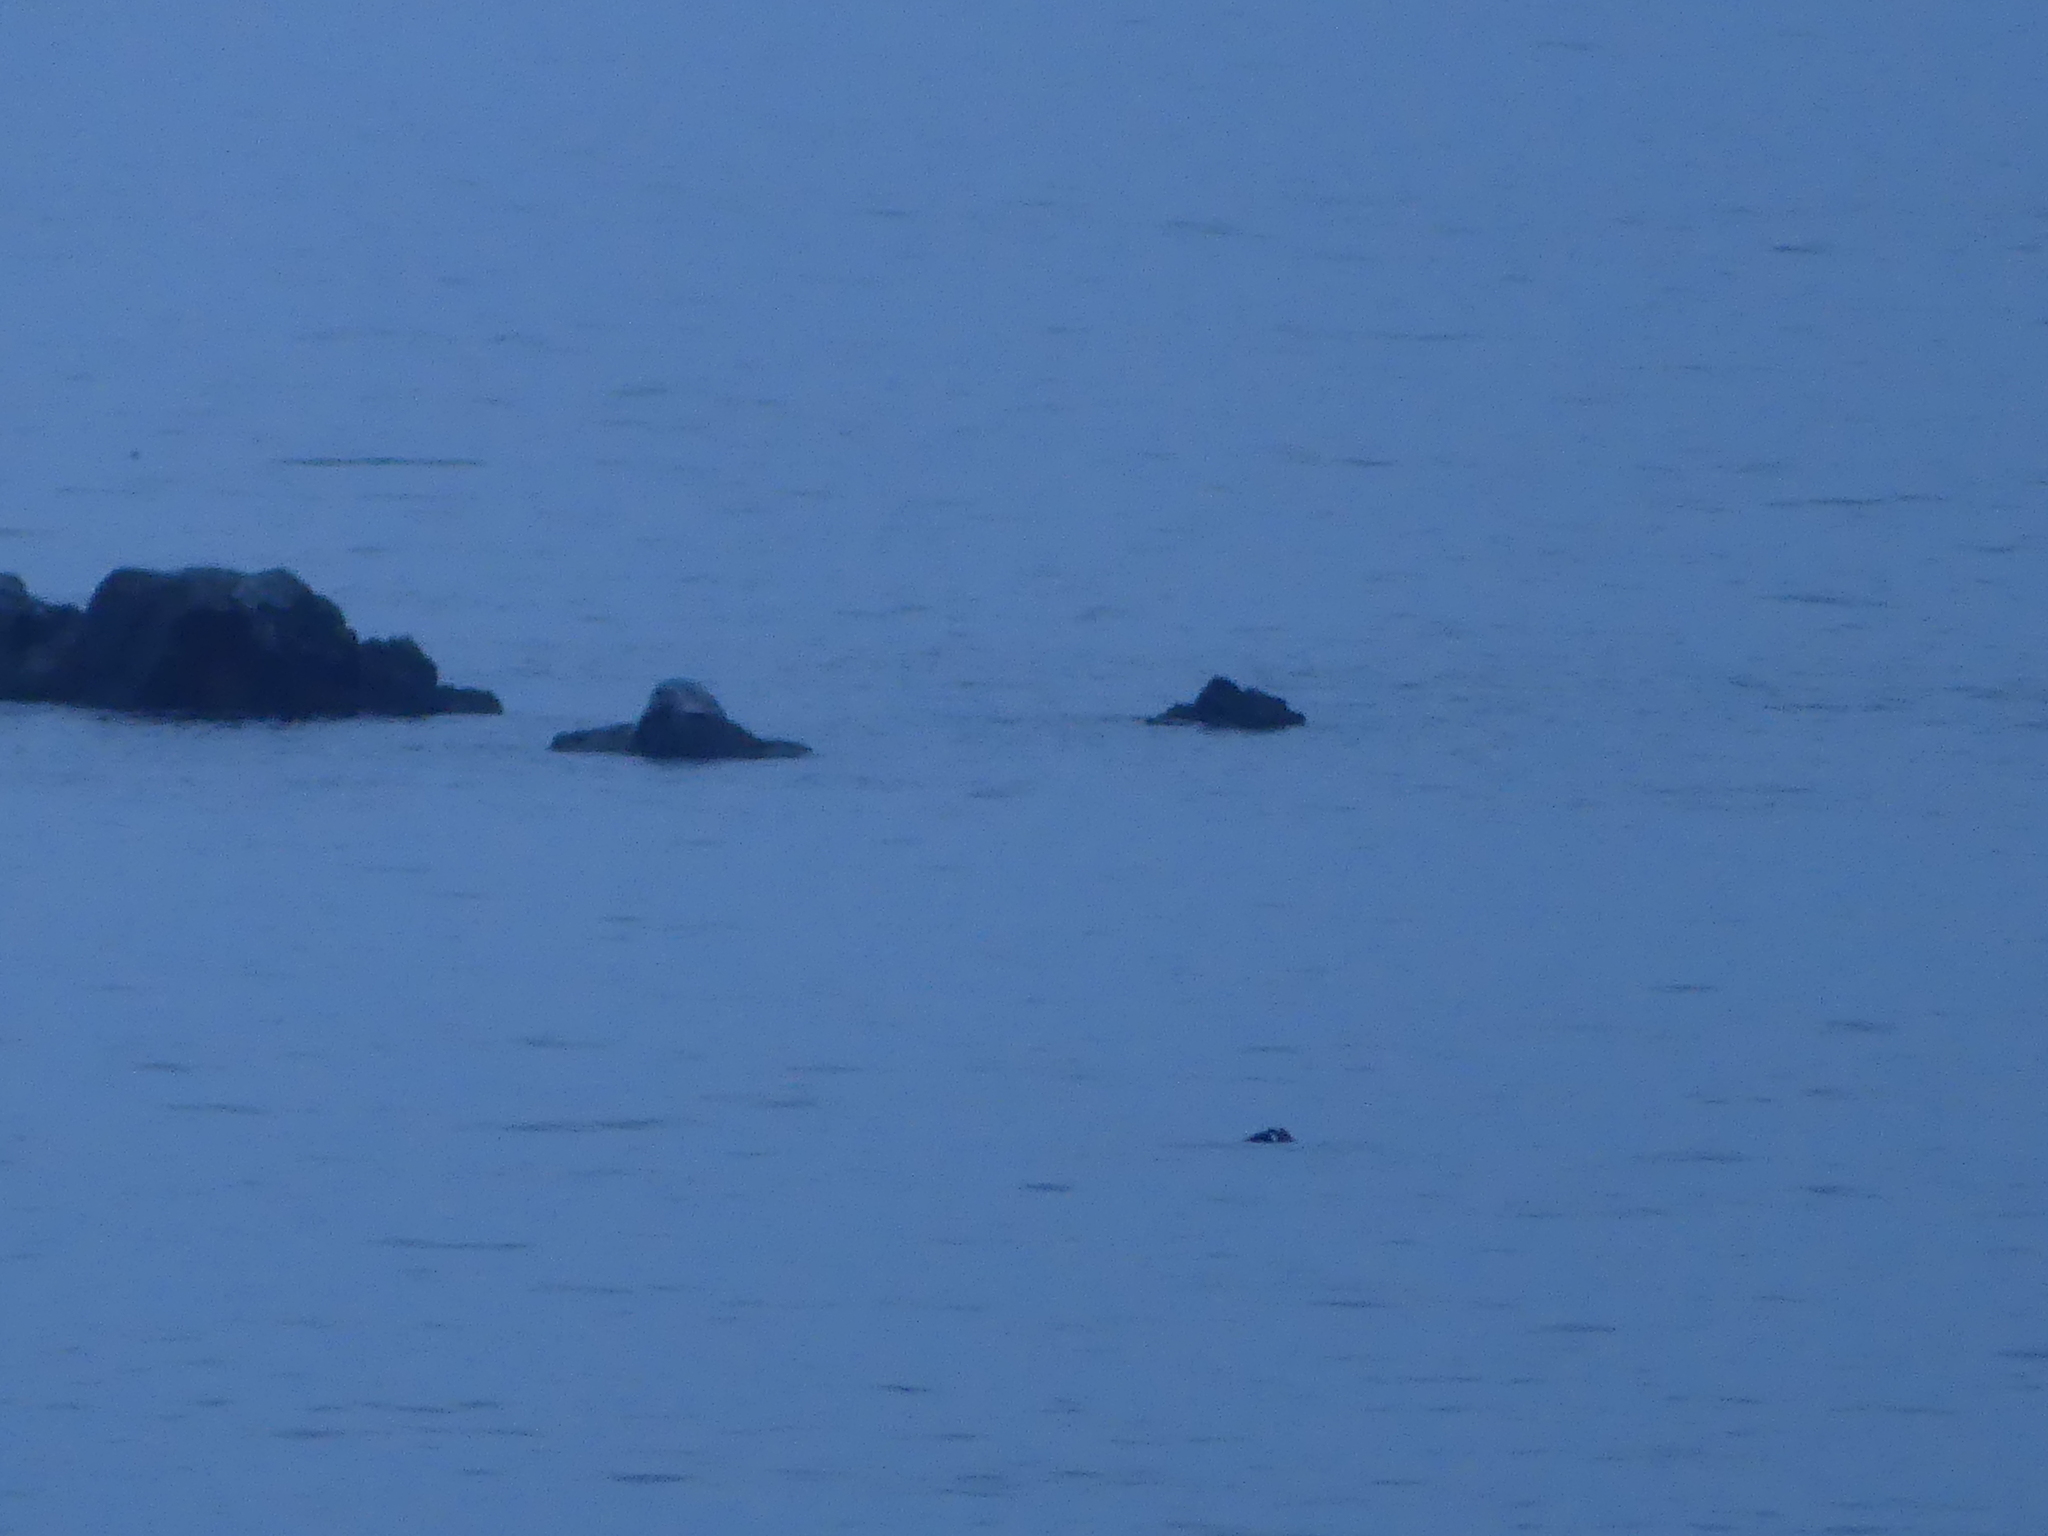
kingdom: Animalia
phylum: Chordata
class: Mammalia
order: Carnivora
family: Phocidae
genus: Phoca
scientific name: Phoca vitulina
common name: Harbor seal
